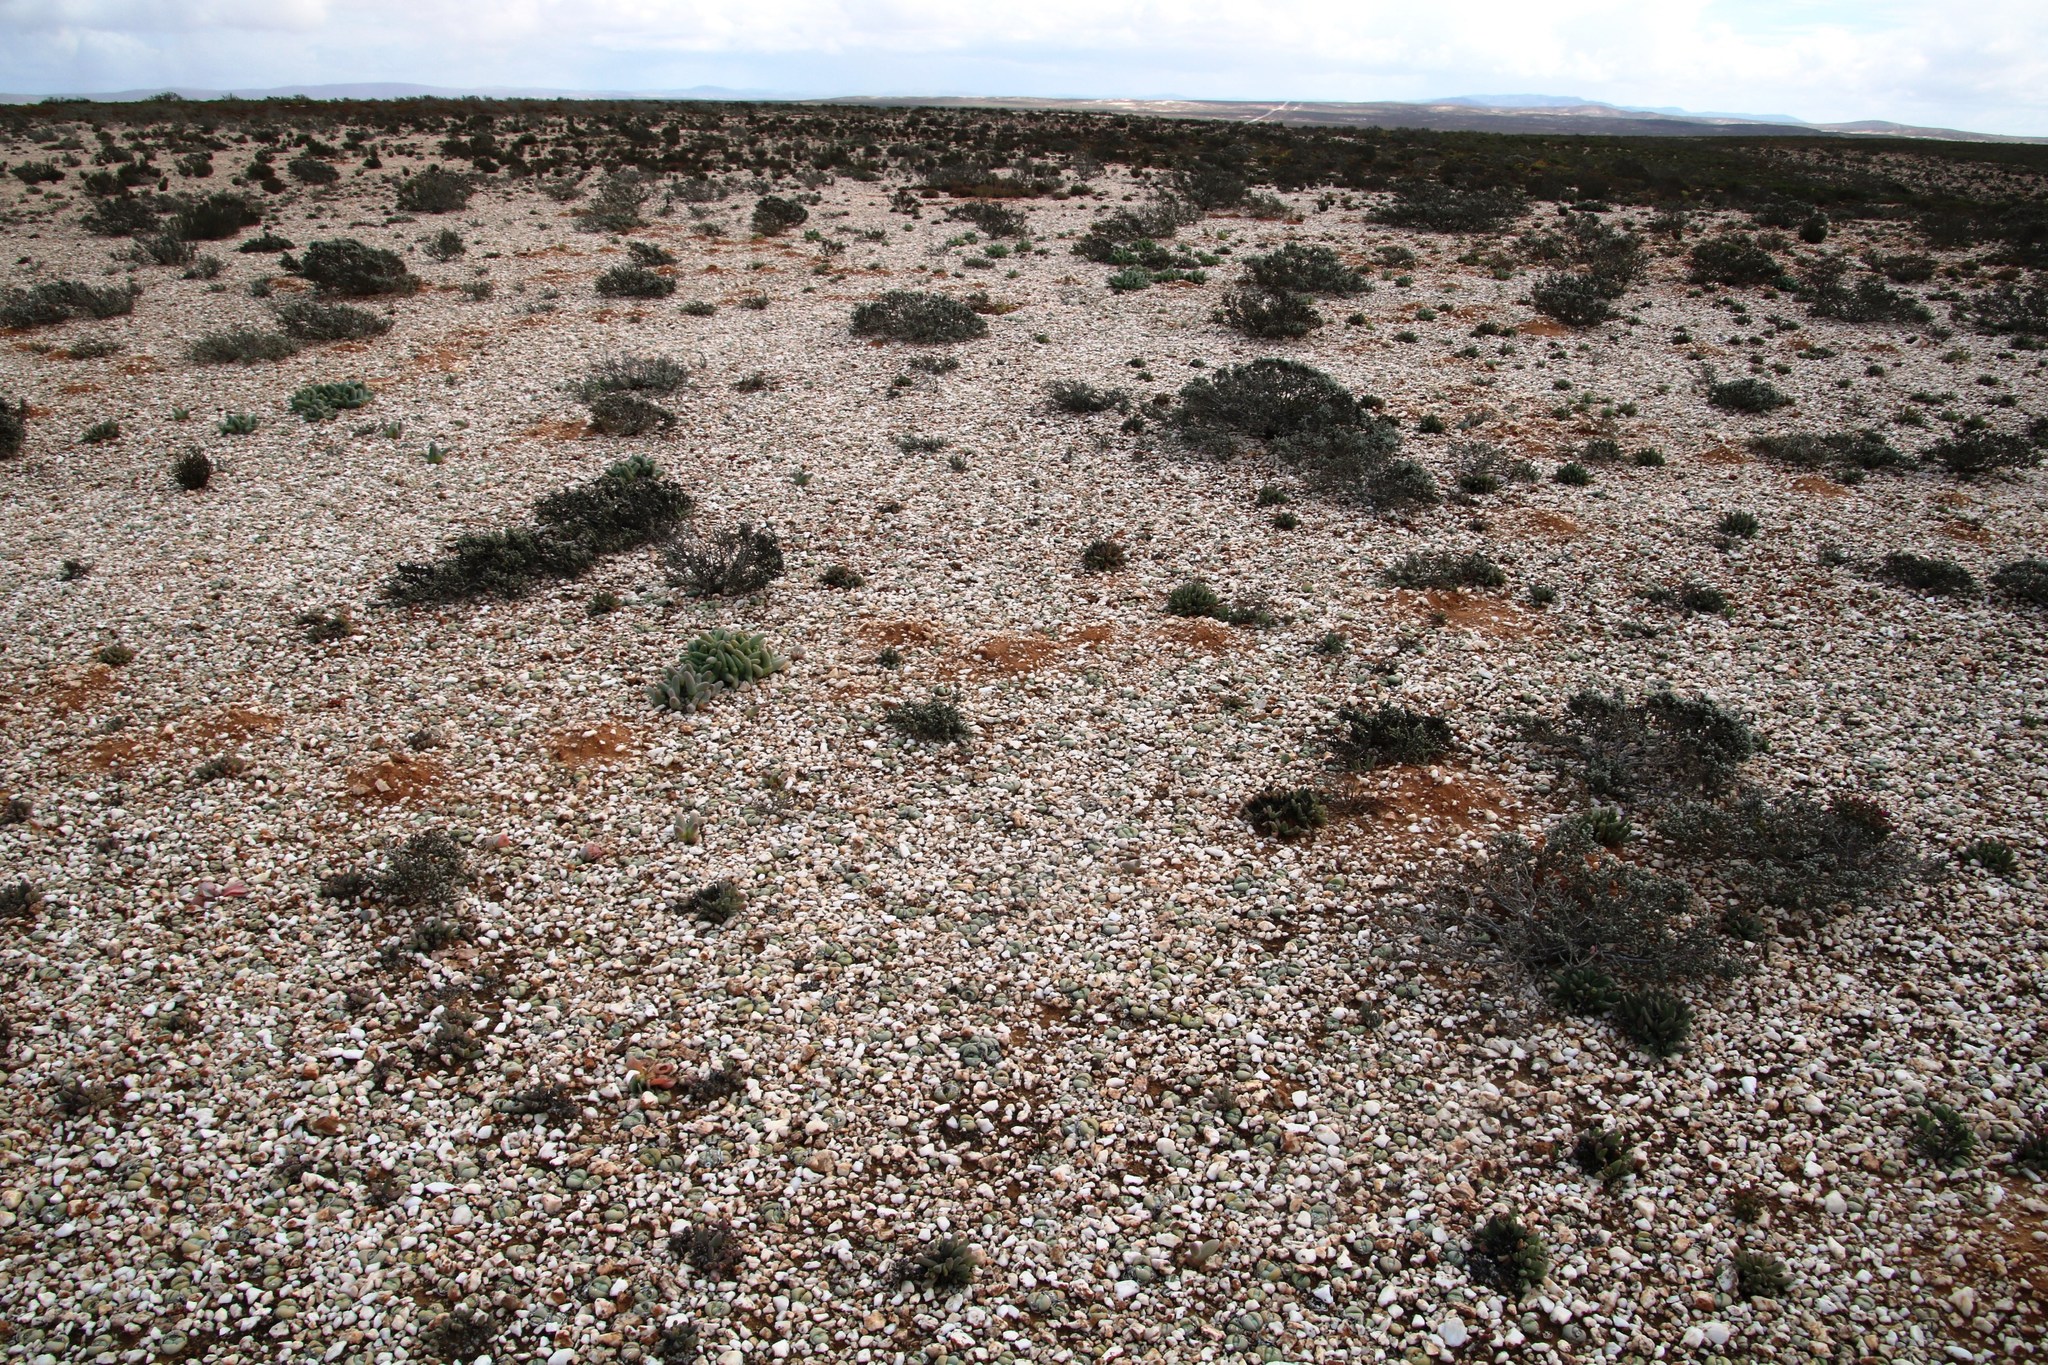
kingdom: Plantae
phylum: Tracheophyta
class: Magnoliopsida
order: Caryophyllales
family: Aizoaceae
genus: Argyroderma
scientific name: Argyroderma delaetii
